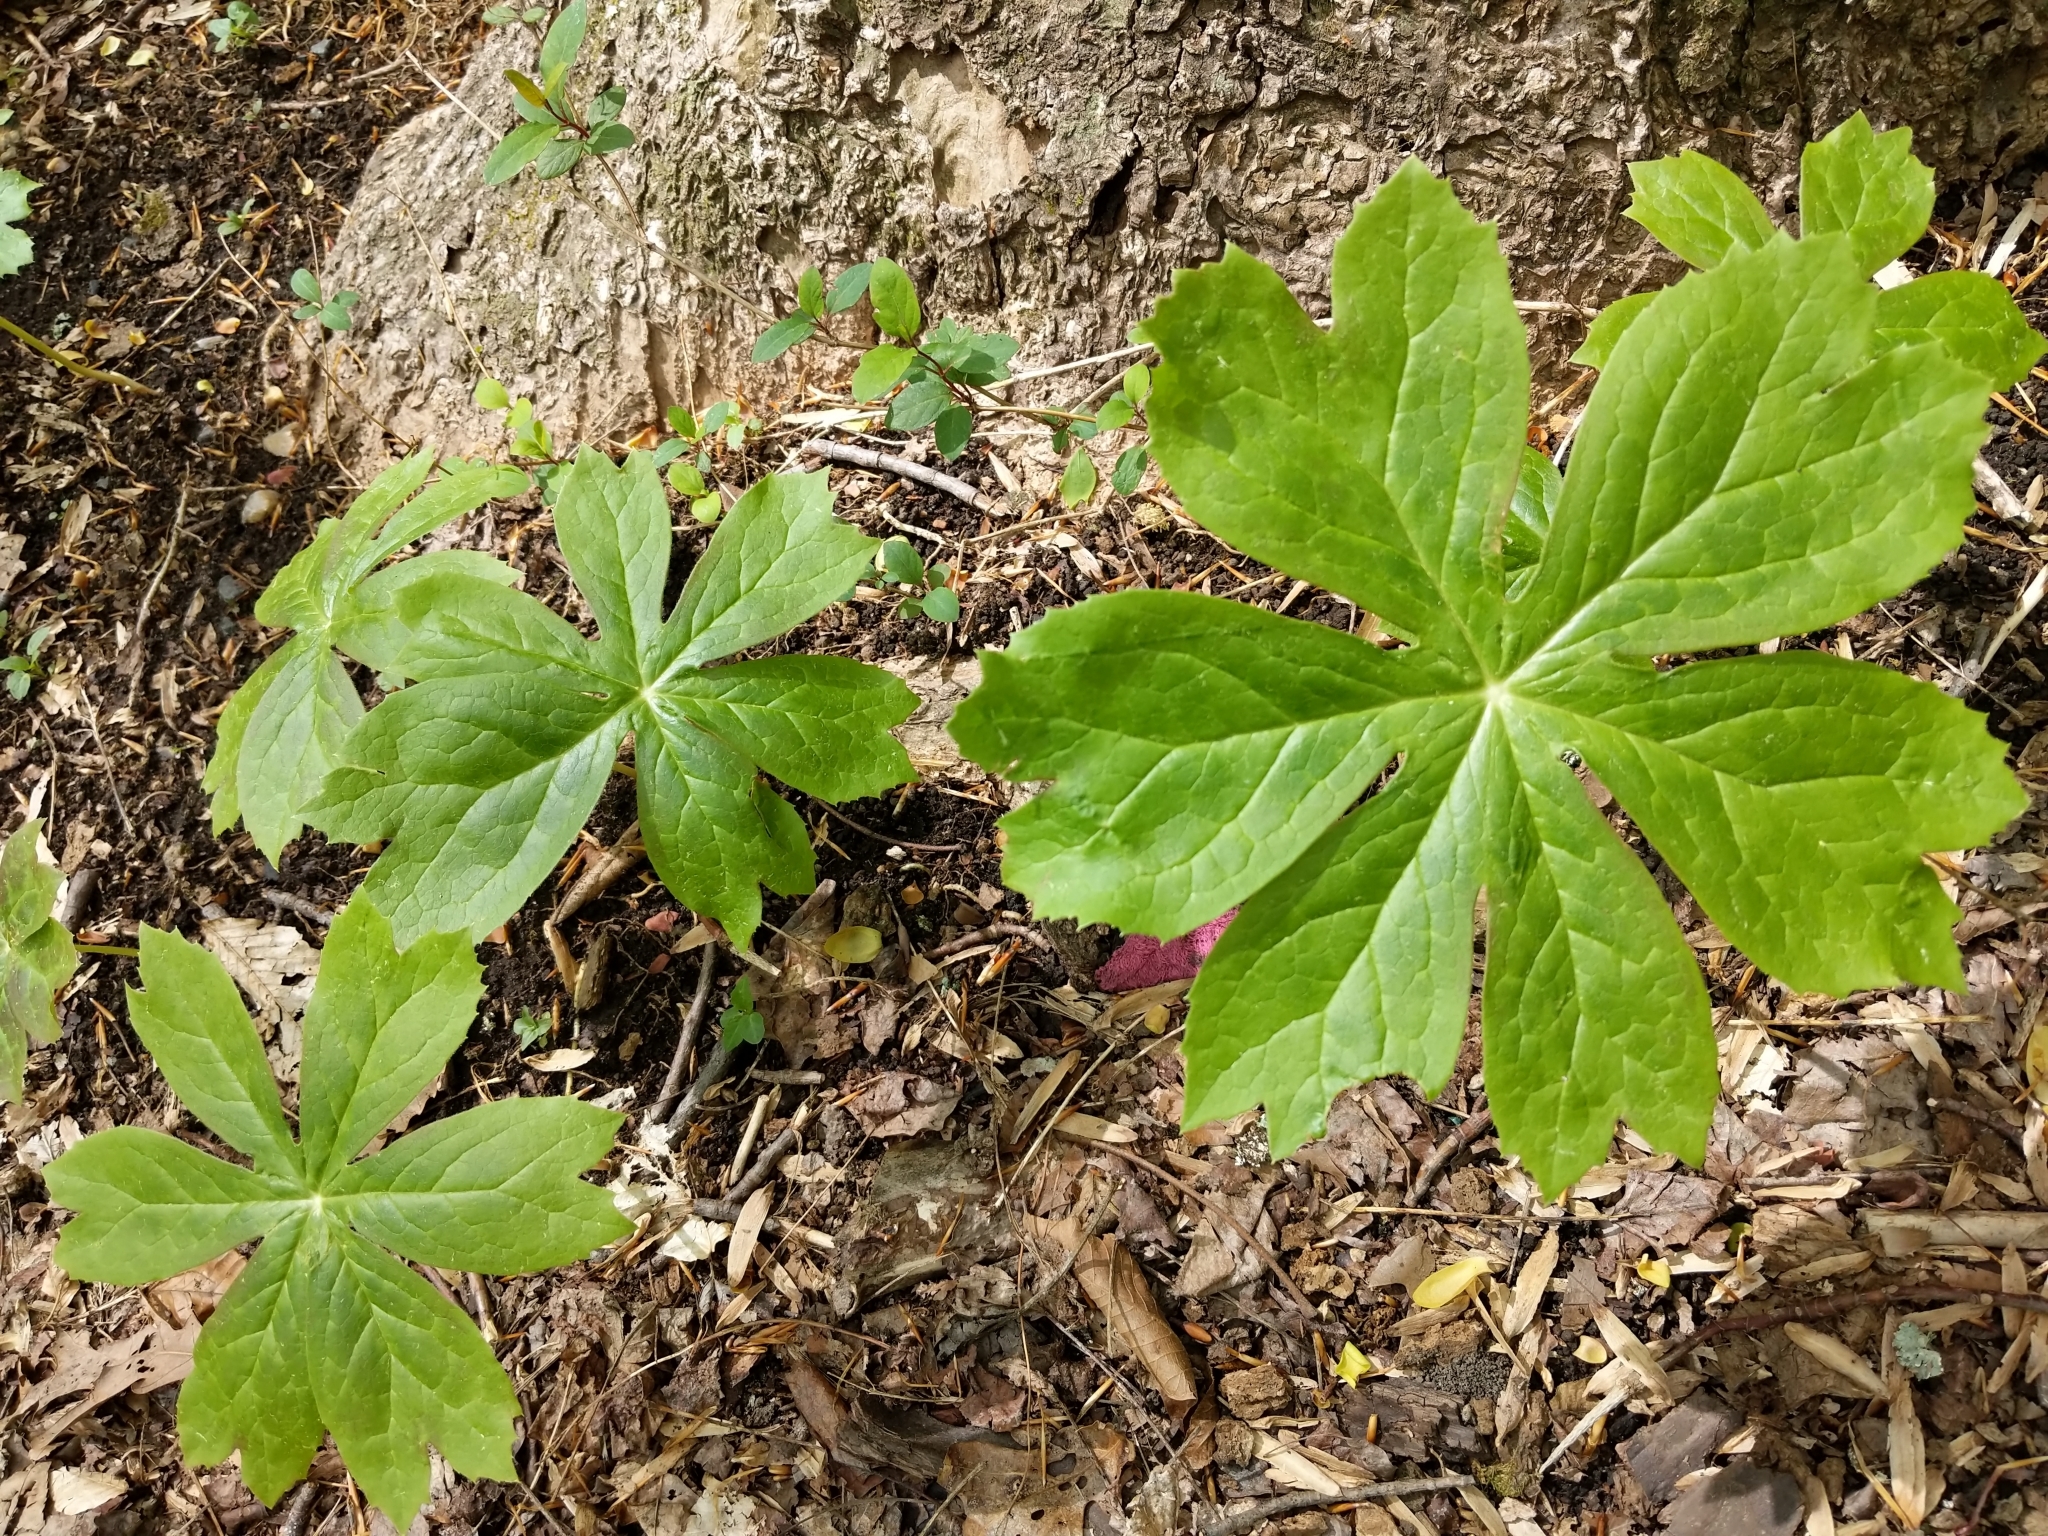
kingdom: Plantae
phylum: Tracheophyta
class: Magnoliopsida
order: Ranunculales
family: Berberidaceae
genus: Podophyllum
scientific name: Podophyllum peltatum
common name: Wild mandrake
